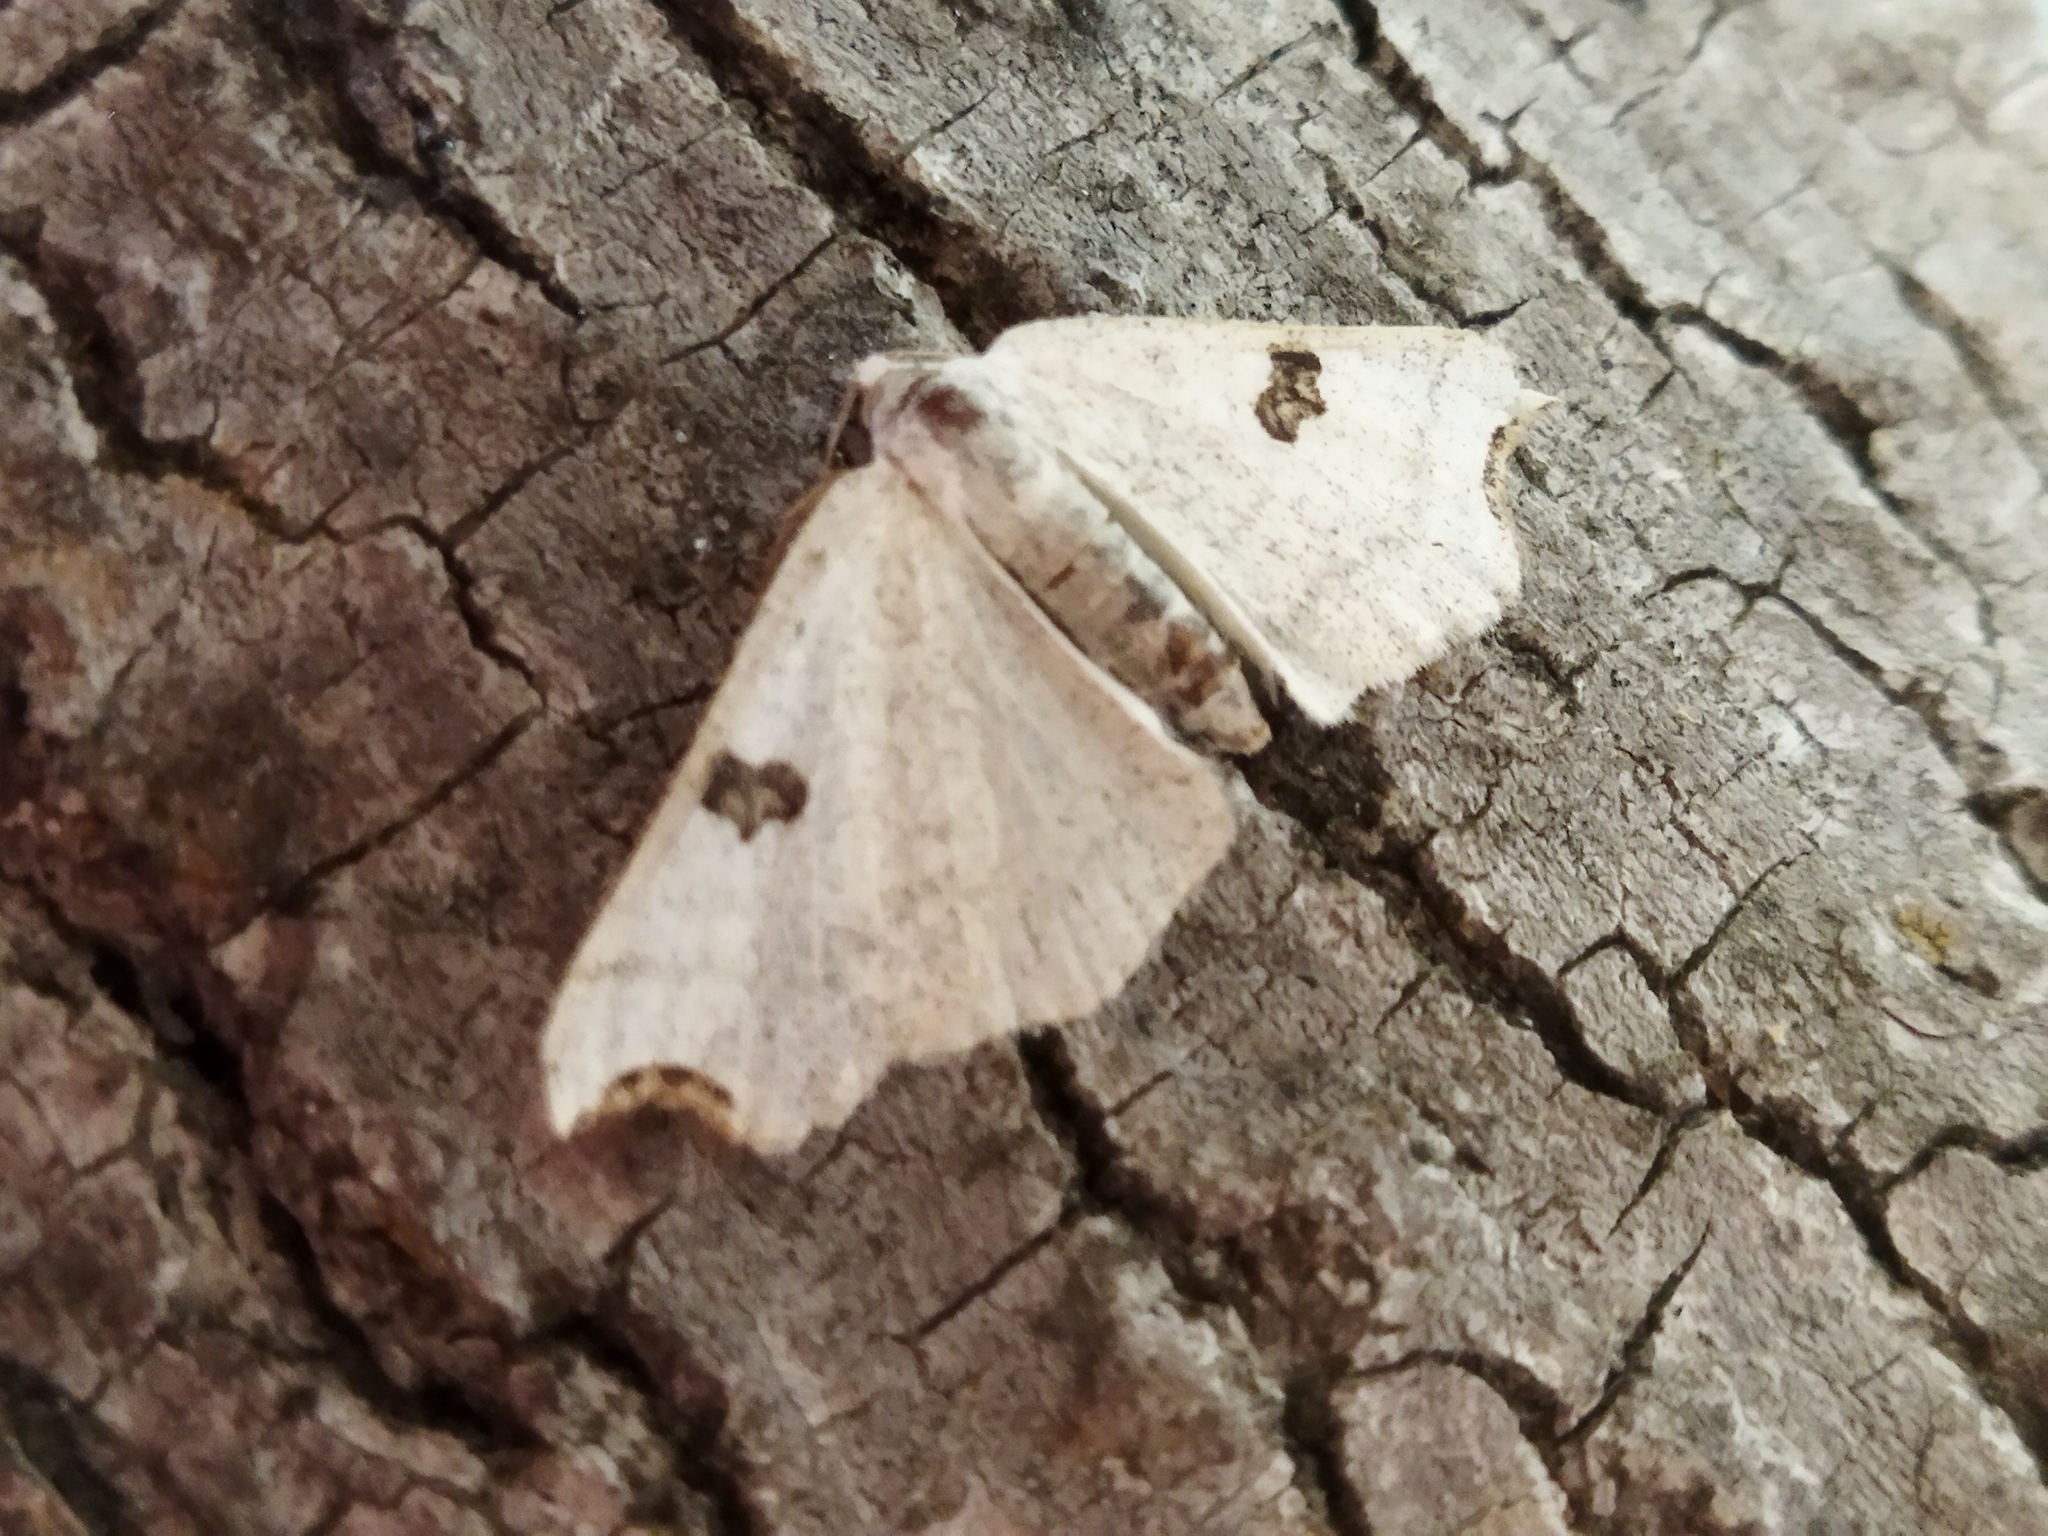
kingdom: Animalia
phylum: Arthropoda
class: Insecta
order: Lepidoptera
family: Geometridae
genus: Eilicrinia
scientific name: Eilicrinia cordiaria
